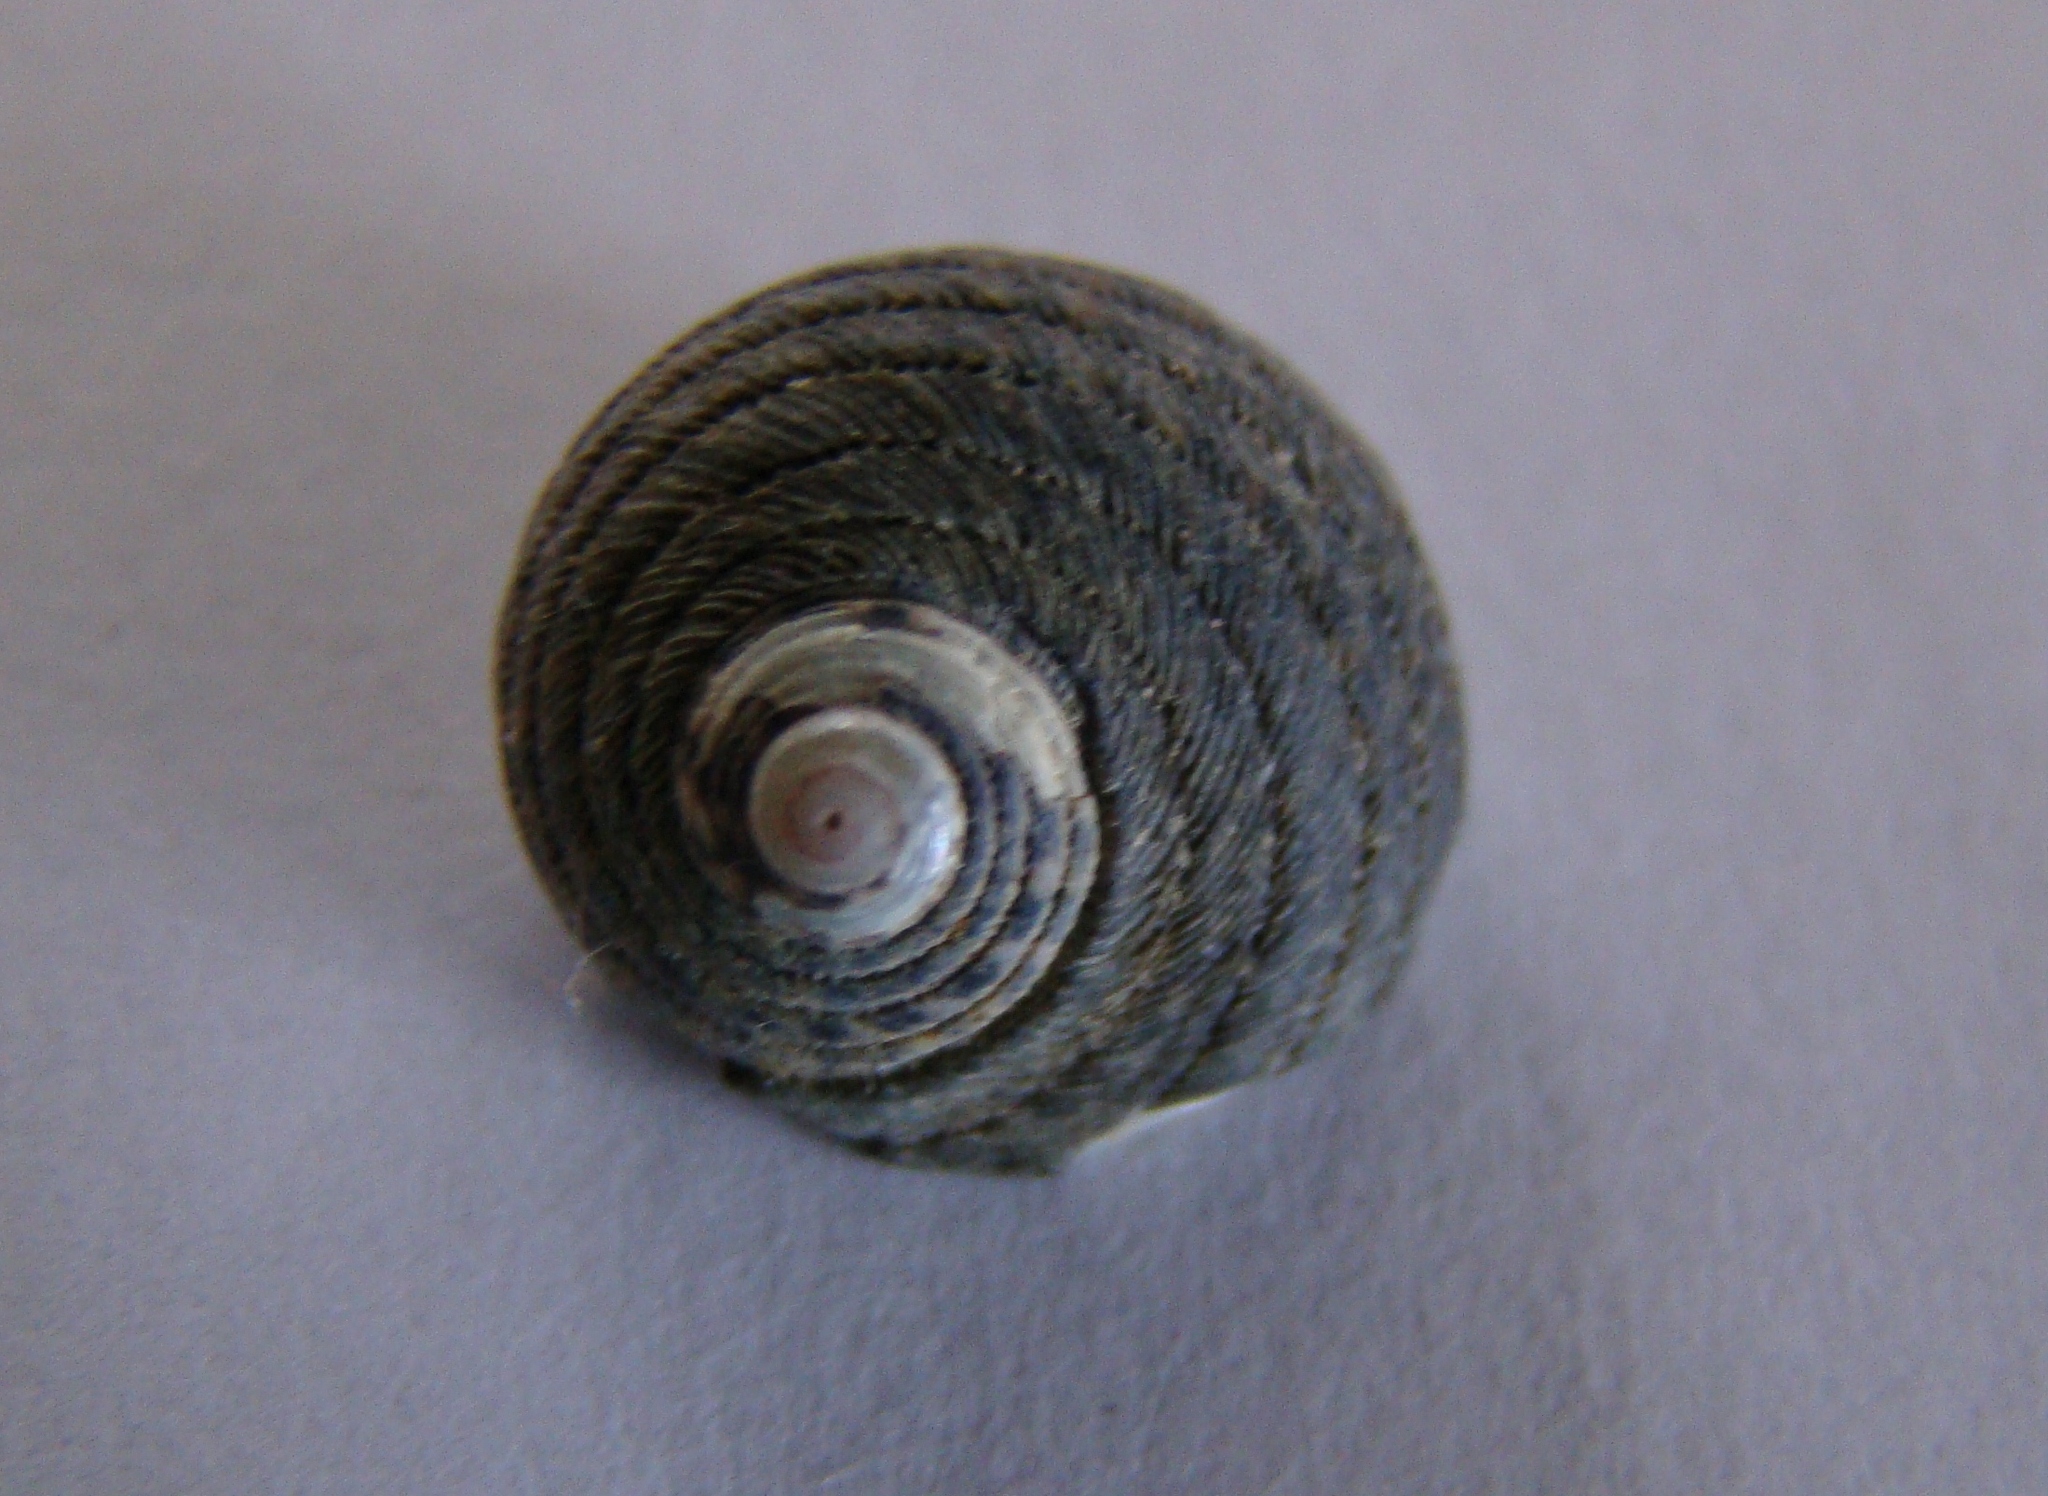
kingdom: Animalia
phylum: Mollusca
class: Gastropoda
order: Trochida
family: Trochidae
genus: Diloma
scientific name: Diloma aethiops
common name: Scorched monodont
